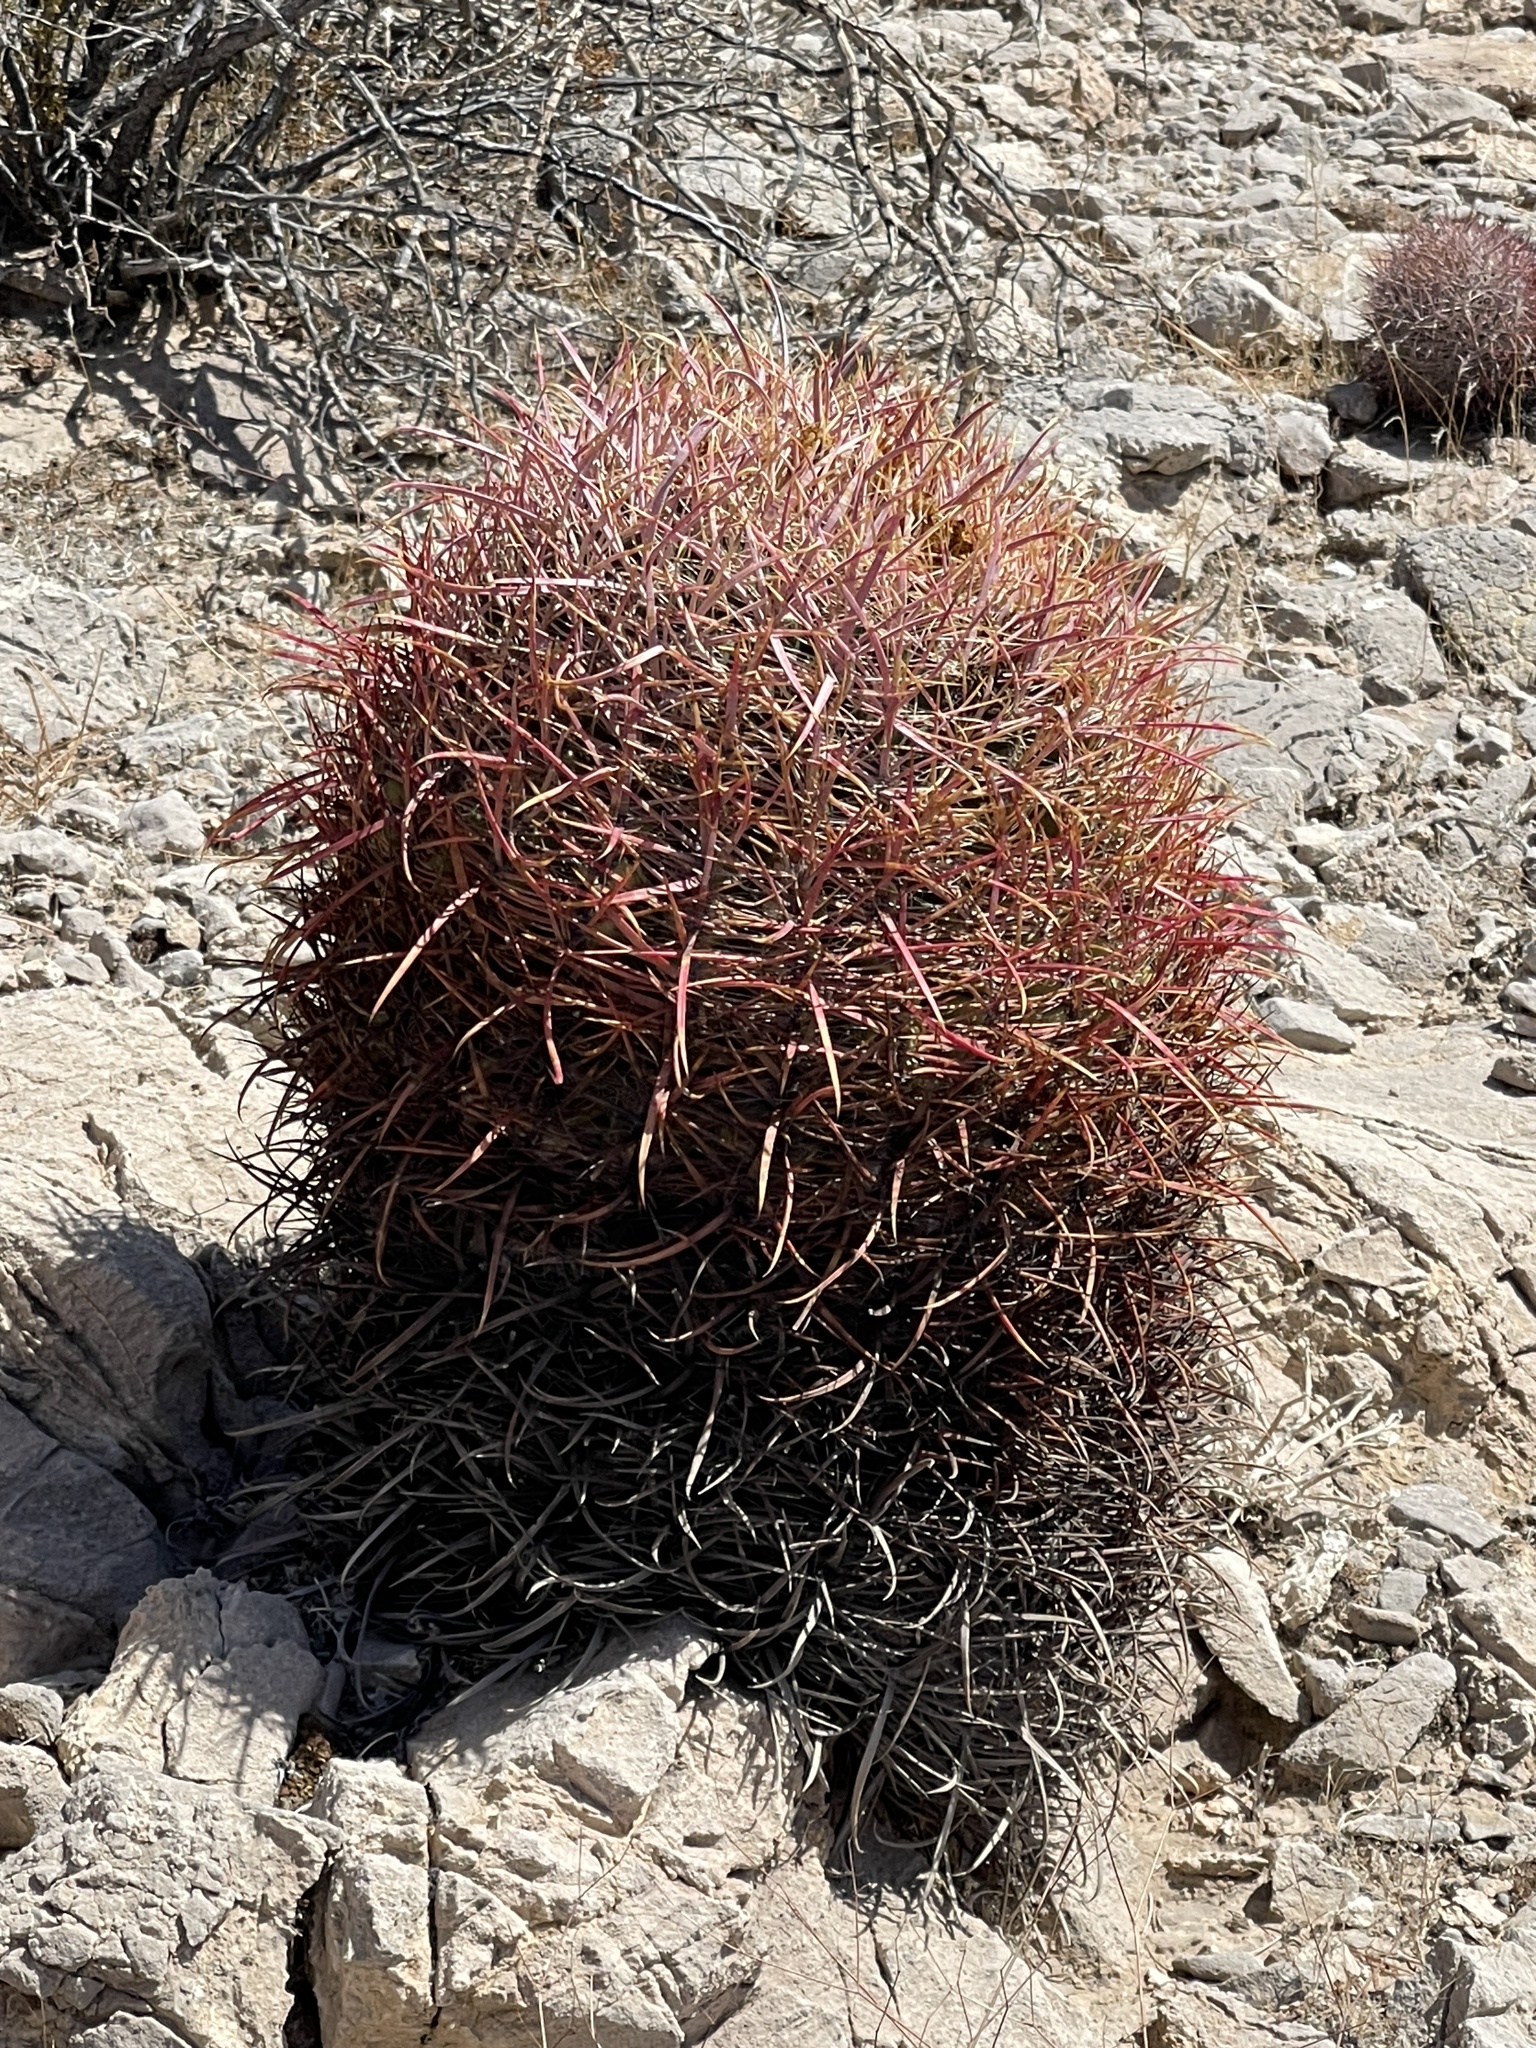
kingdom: Plantae
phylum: Tracheophyta
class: Magnoliopsida
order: Caryophyllales
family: Cactaceae
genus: Ferocactus
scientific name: Ferocactus cylindraceus
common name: California barrel cactus
